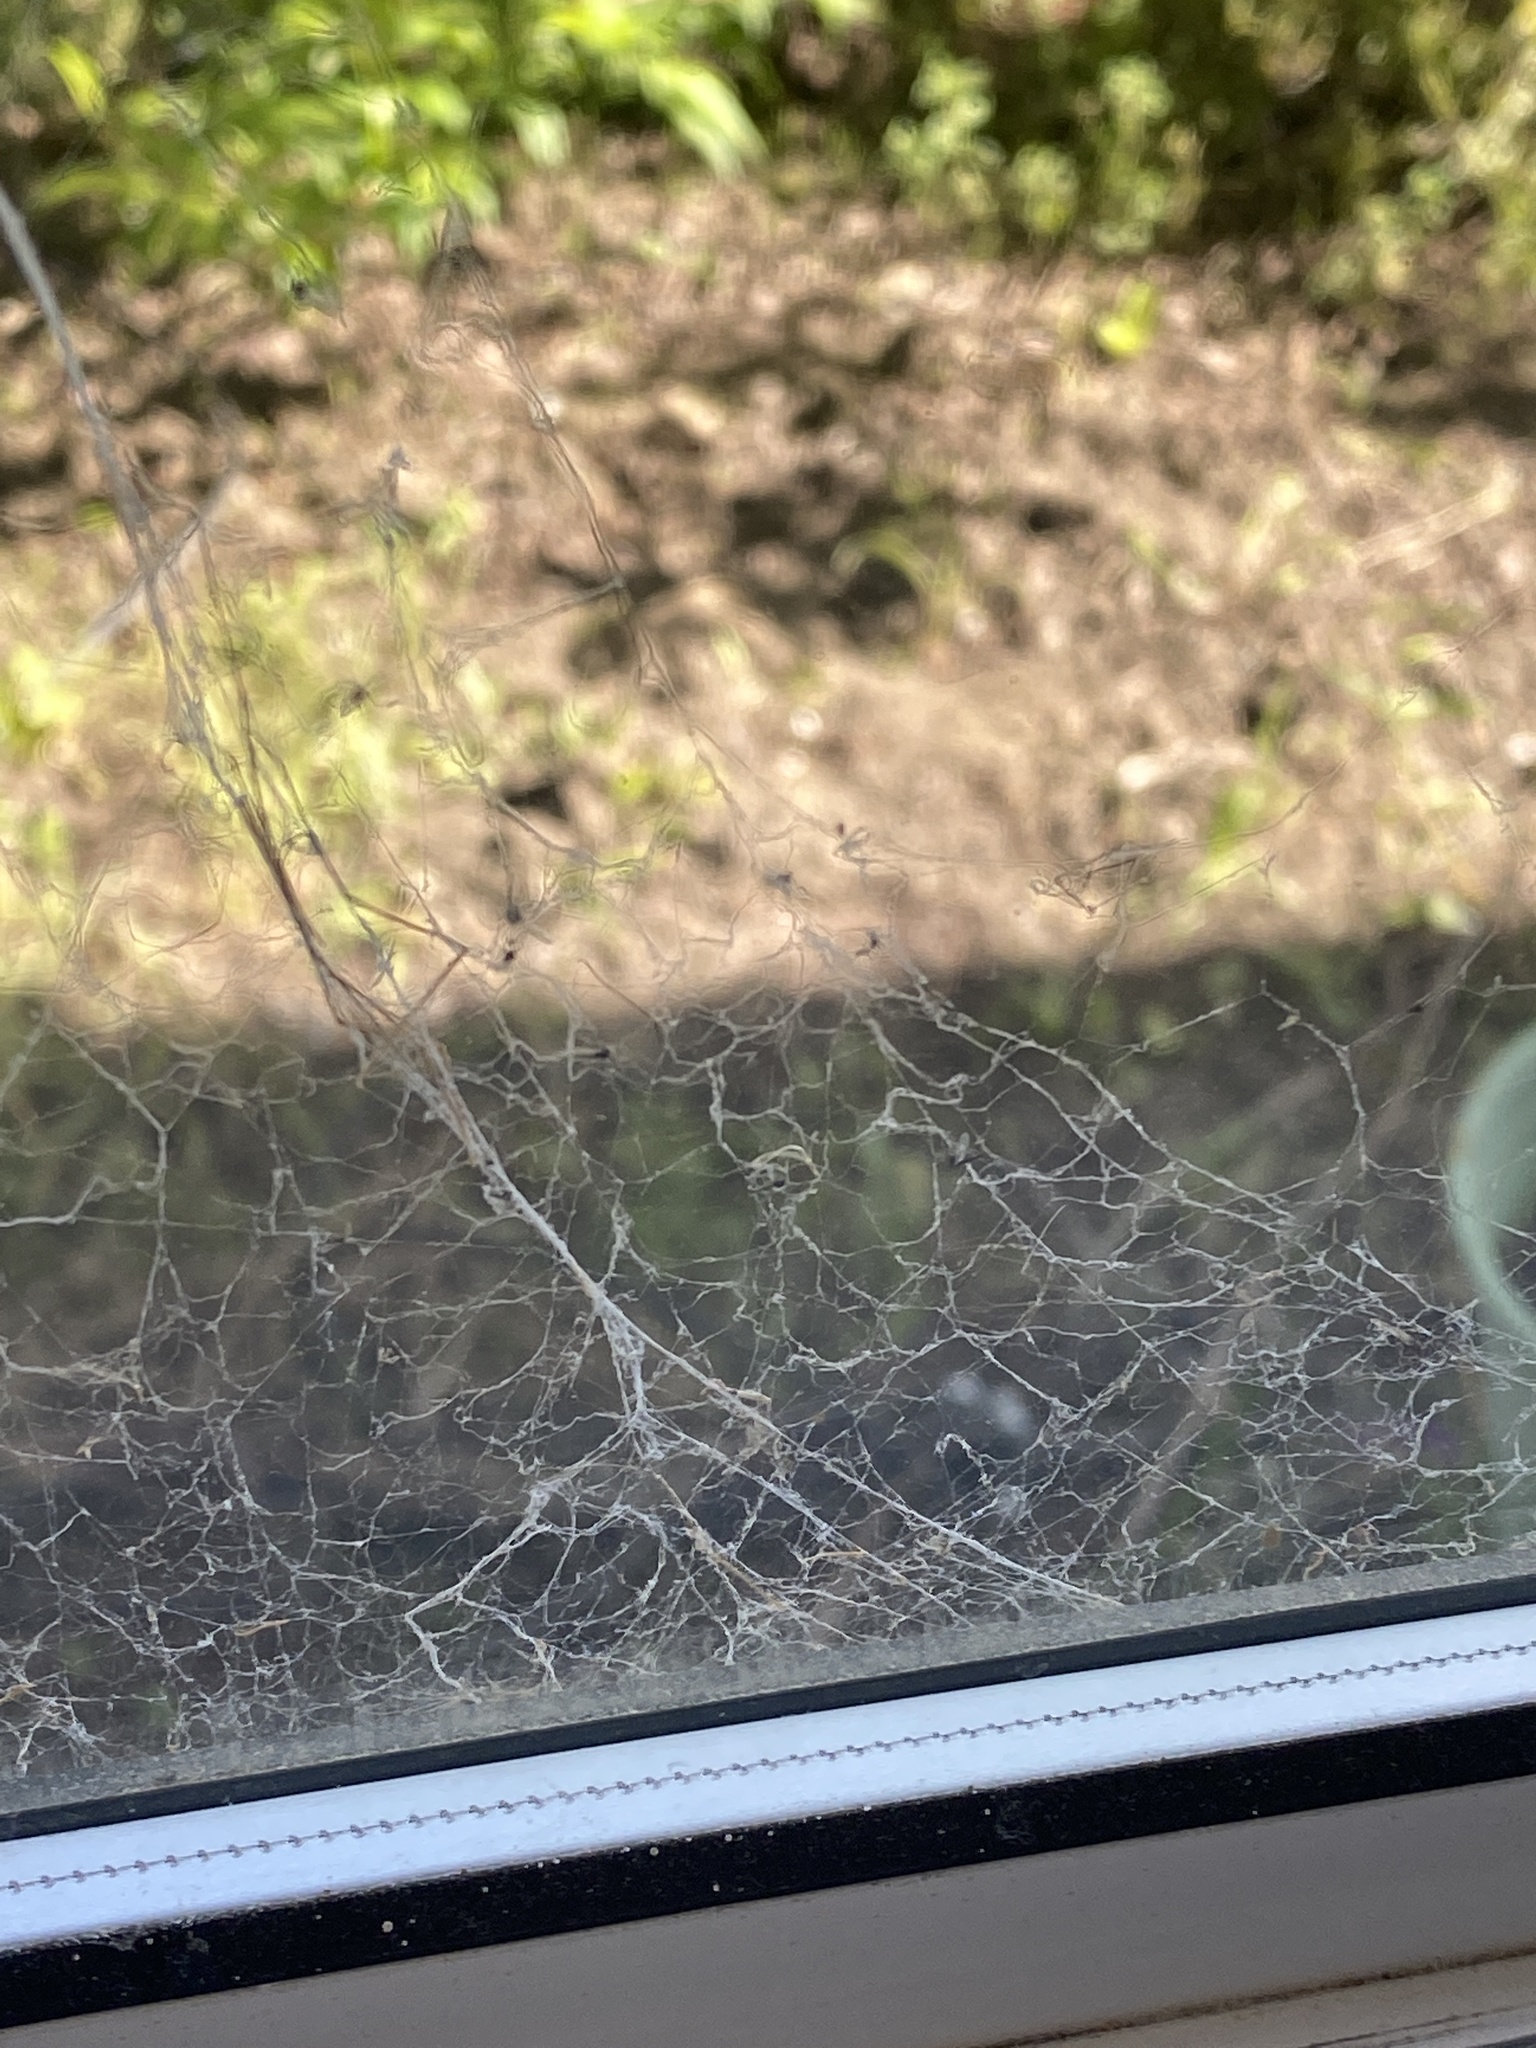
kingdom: Animalia
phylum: Arthropoda
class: Arachnida
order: Araneae
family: Desidae
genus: Badumna
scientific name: Badumna longinqua
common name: Gray house spider
